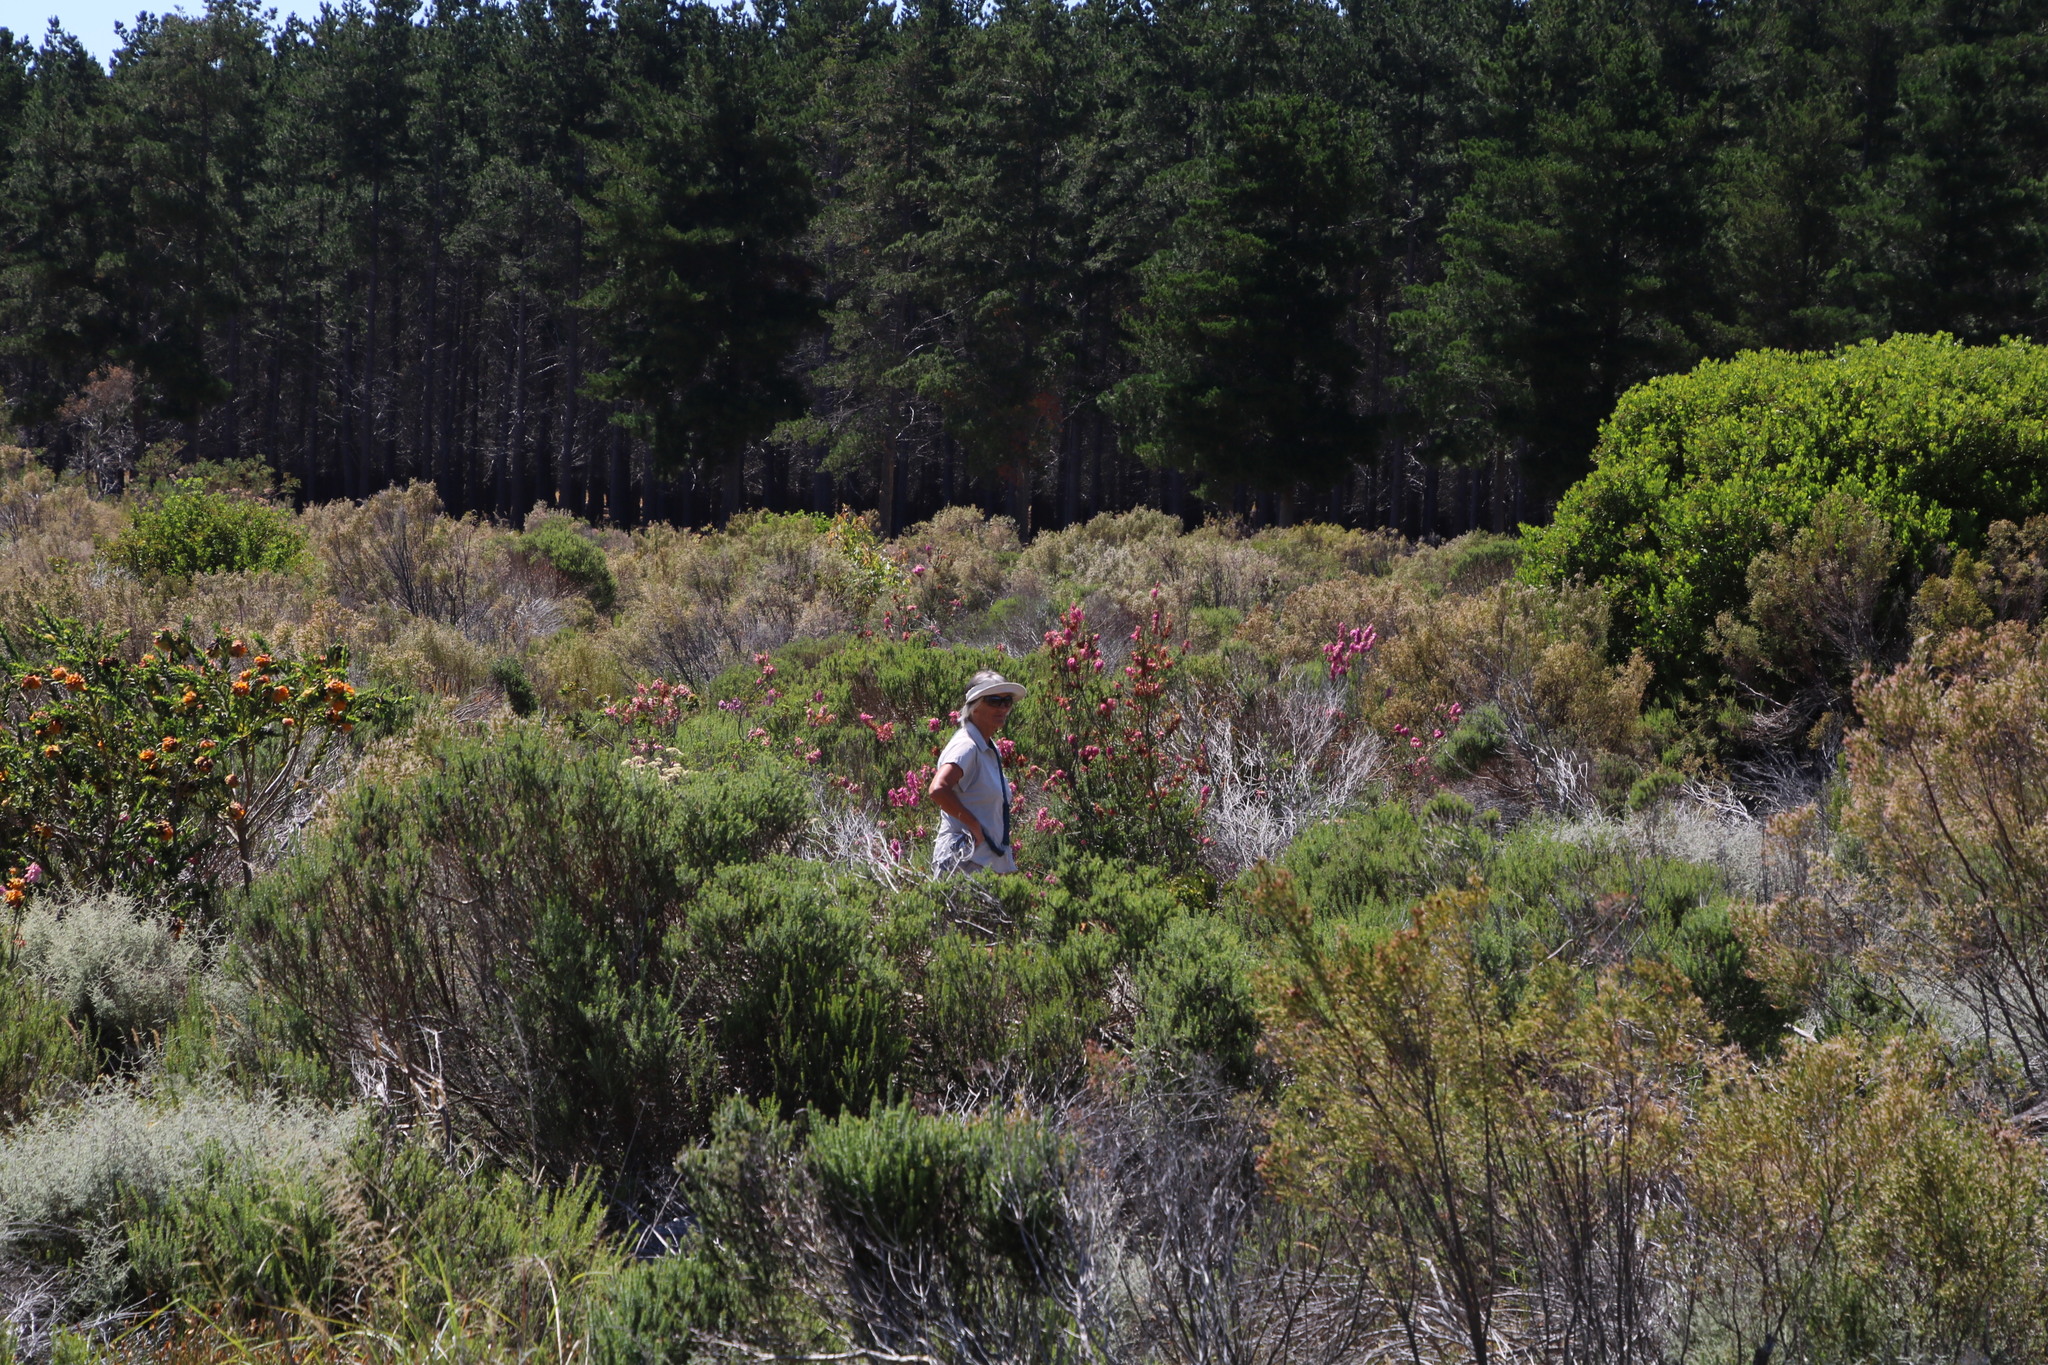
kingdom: Plantae
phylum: Tracheophyta
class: Magnoliopsida
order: Ericales
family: Ericaceae
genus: Erica
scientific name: Erica mammosa
